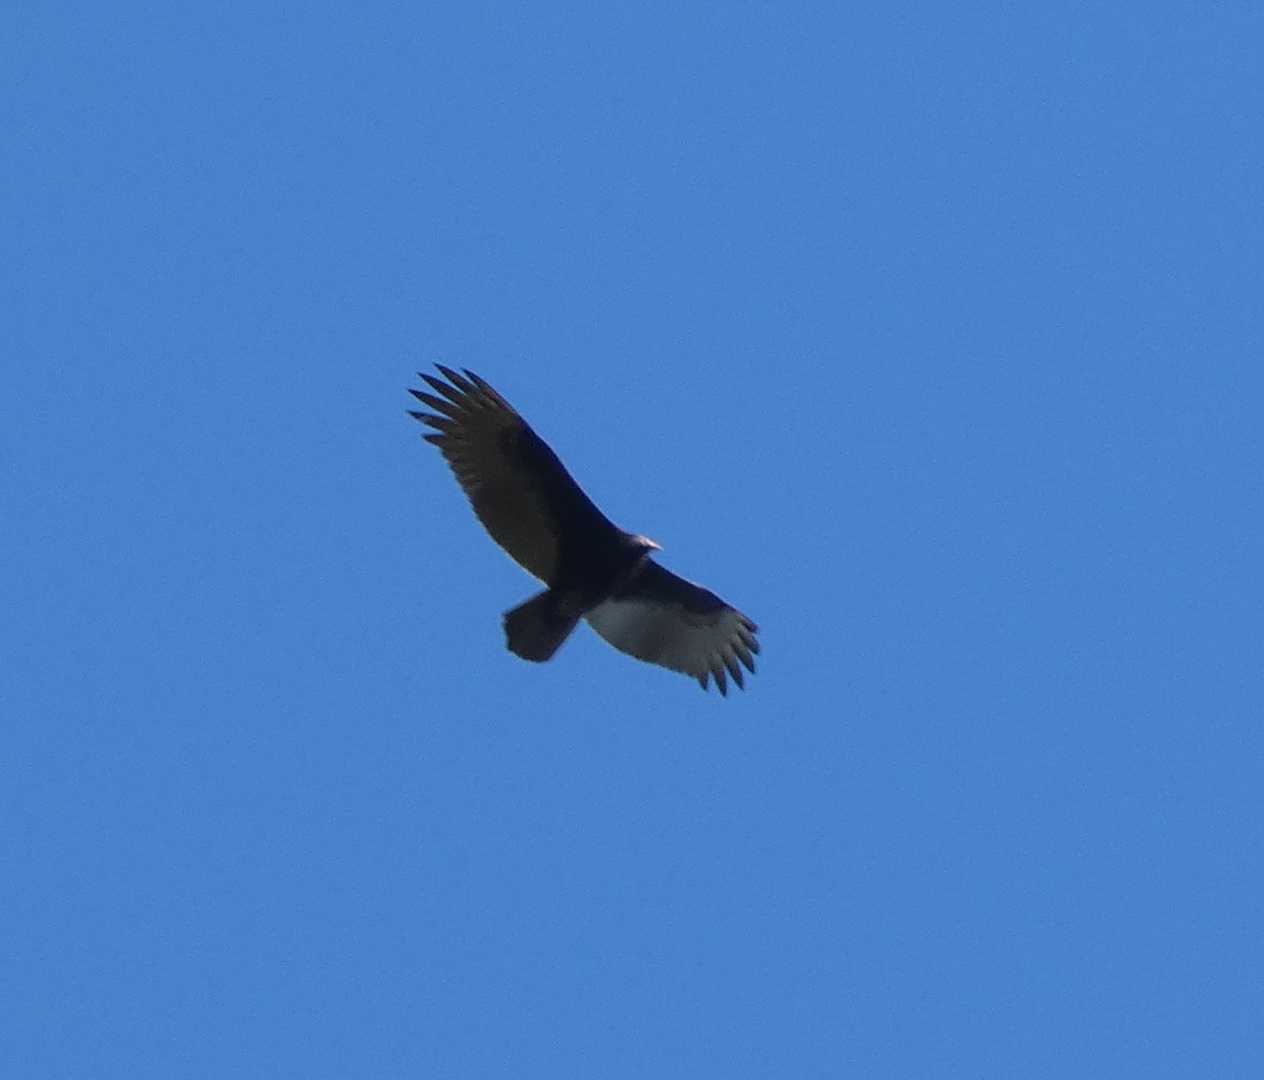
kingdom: Animalia
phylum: Chordata
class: Aves
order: Accipitriformes
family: Cathartidae
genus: Cathartes
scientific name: Cathartes aura
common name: Turkey vulture
